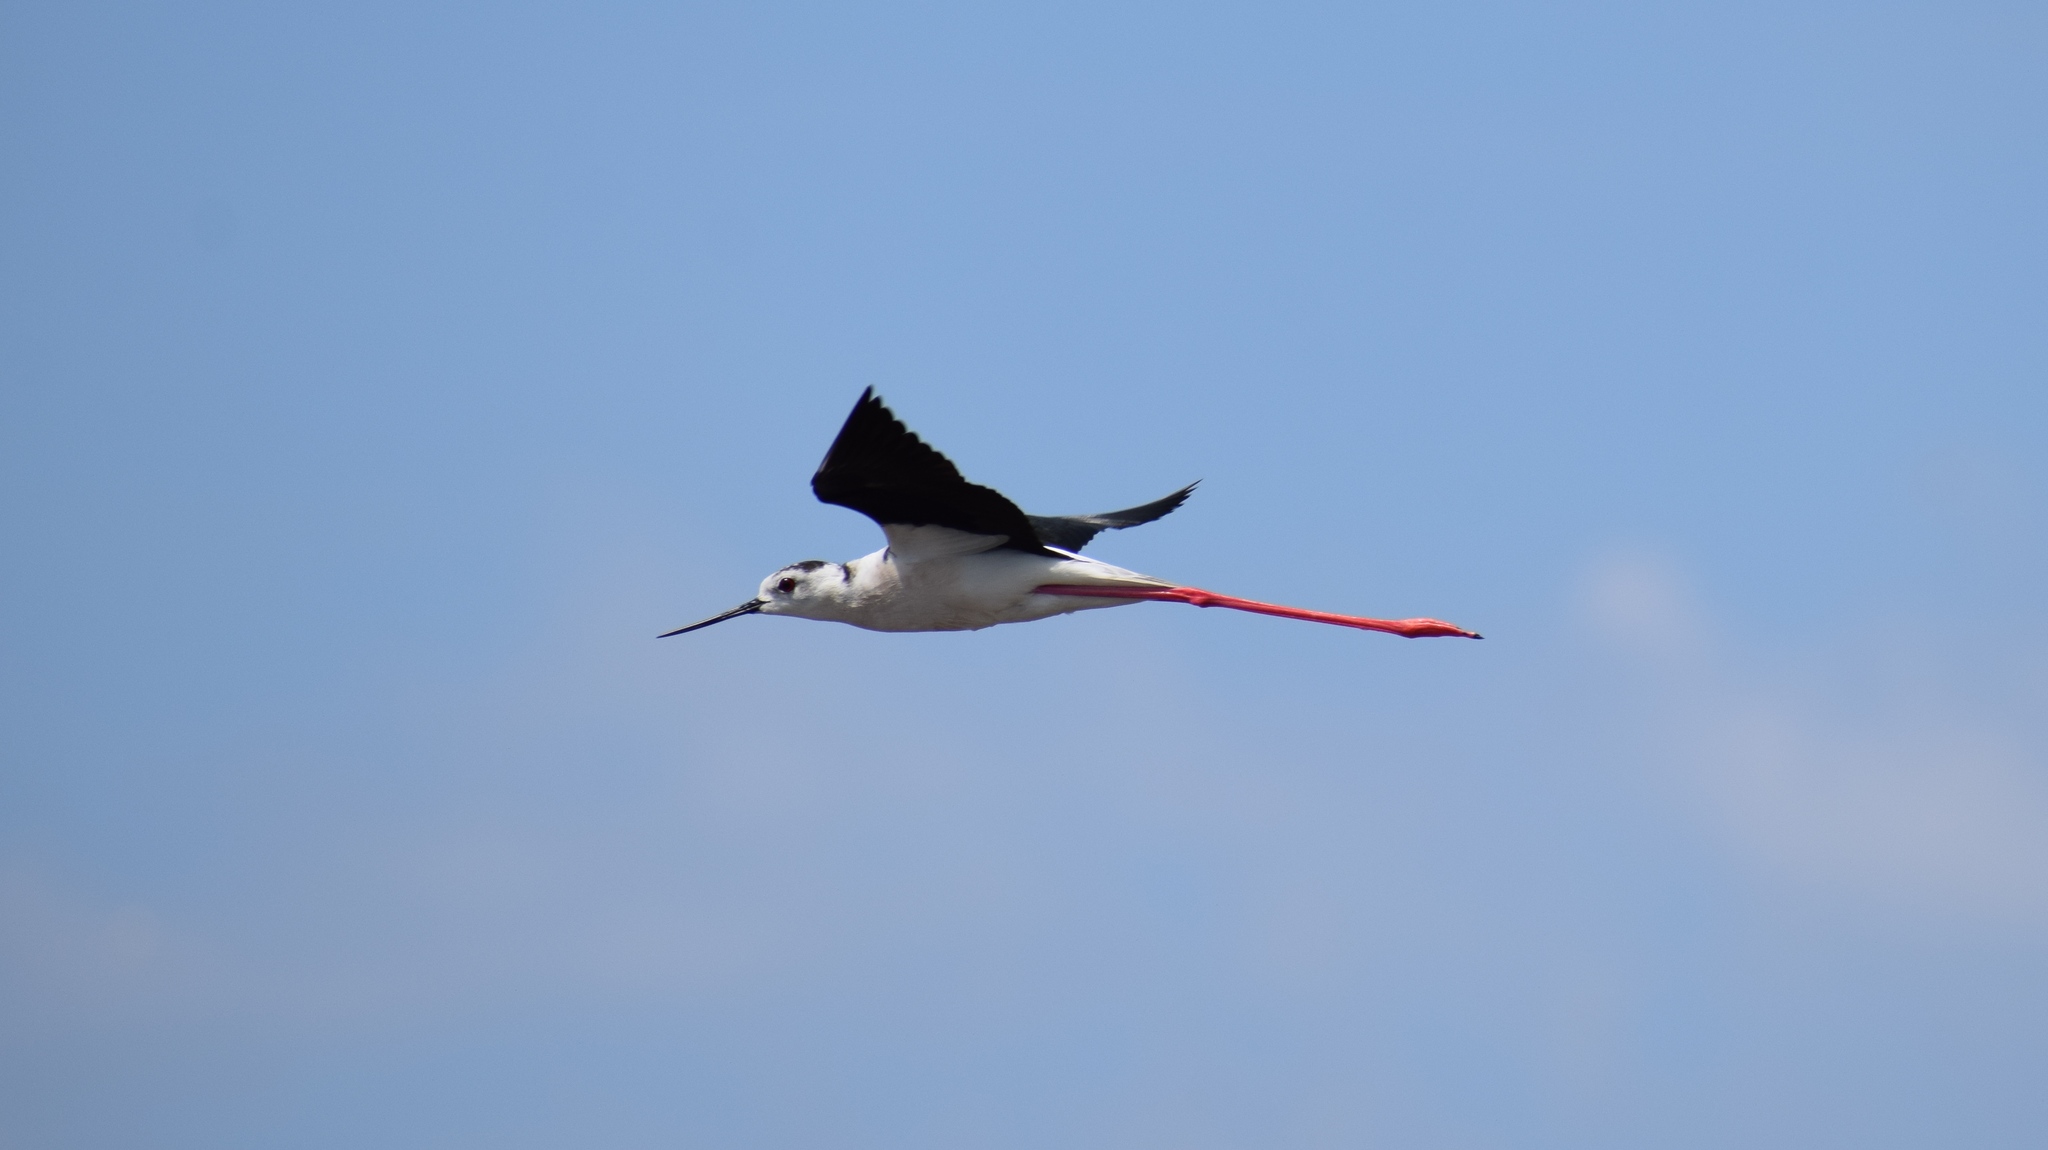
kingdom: Animalia
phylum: Chordata
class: Aves
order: Charadriiformes
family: Recurvirostridae
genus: Himantopus
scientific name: Himantopus himantopus
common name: Black-winged stilt
